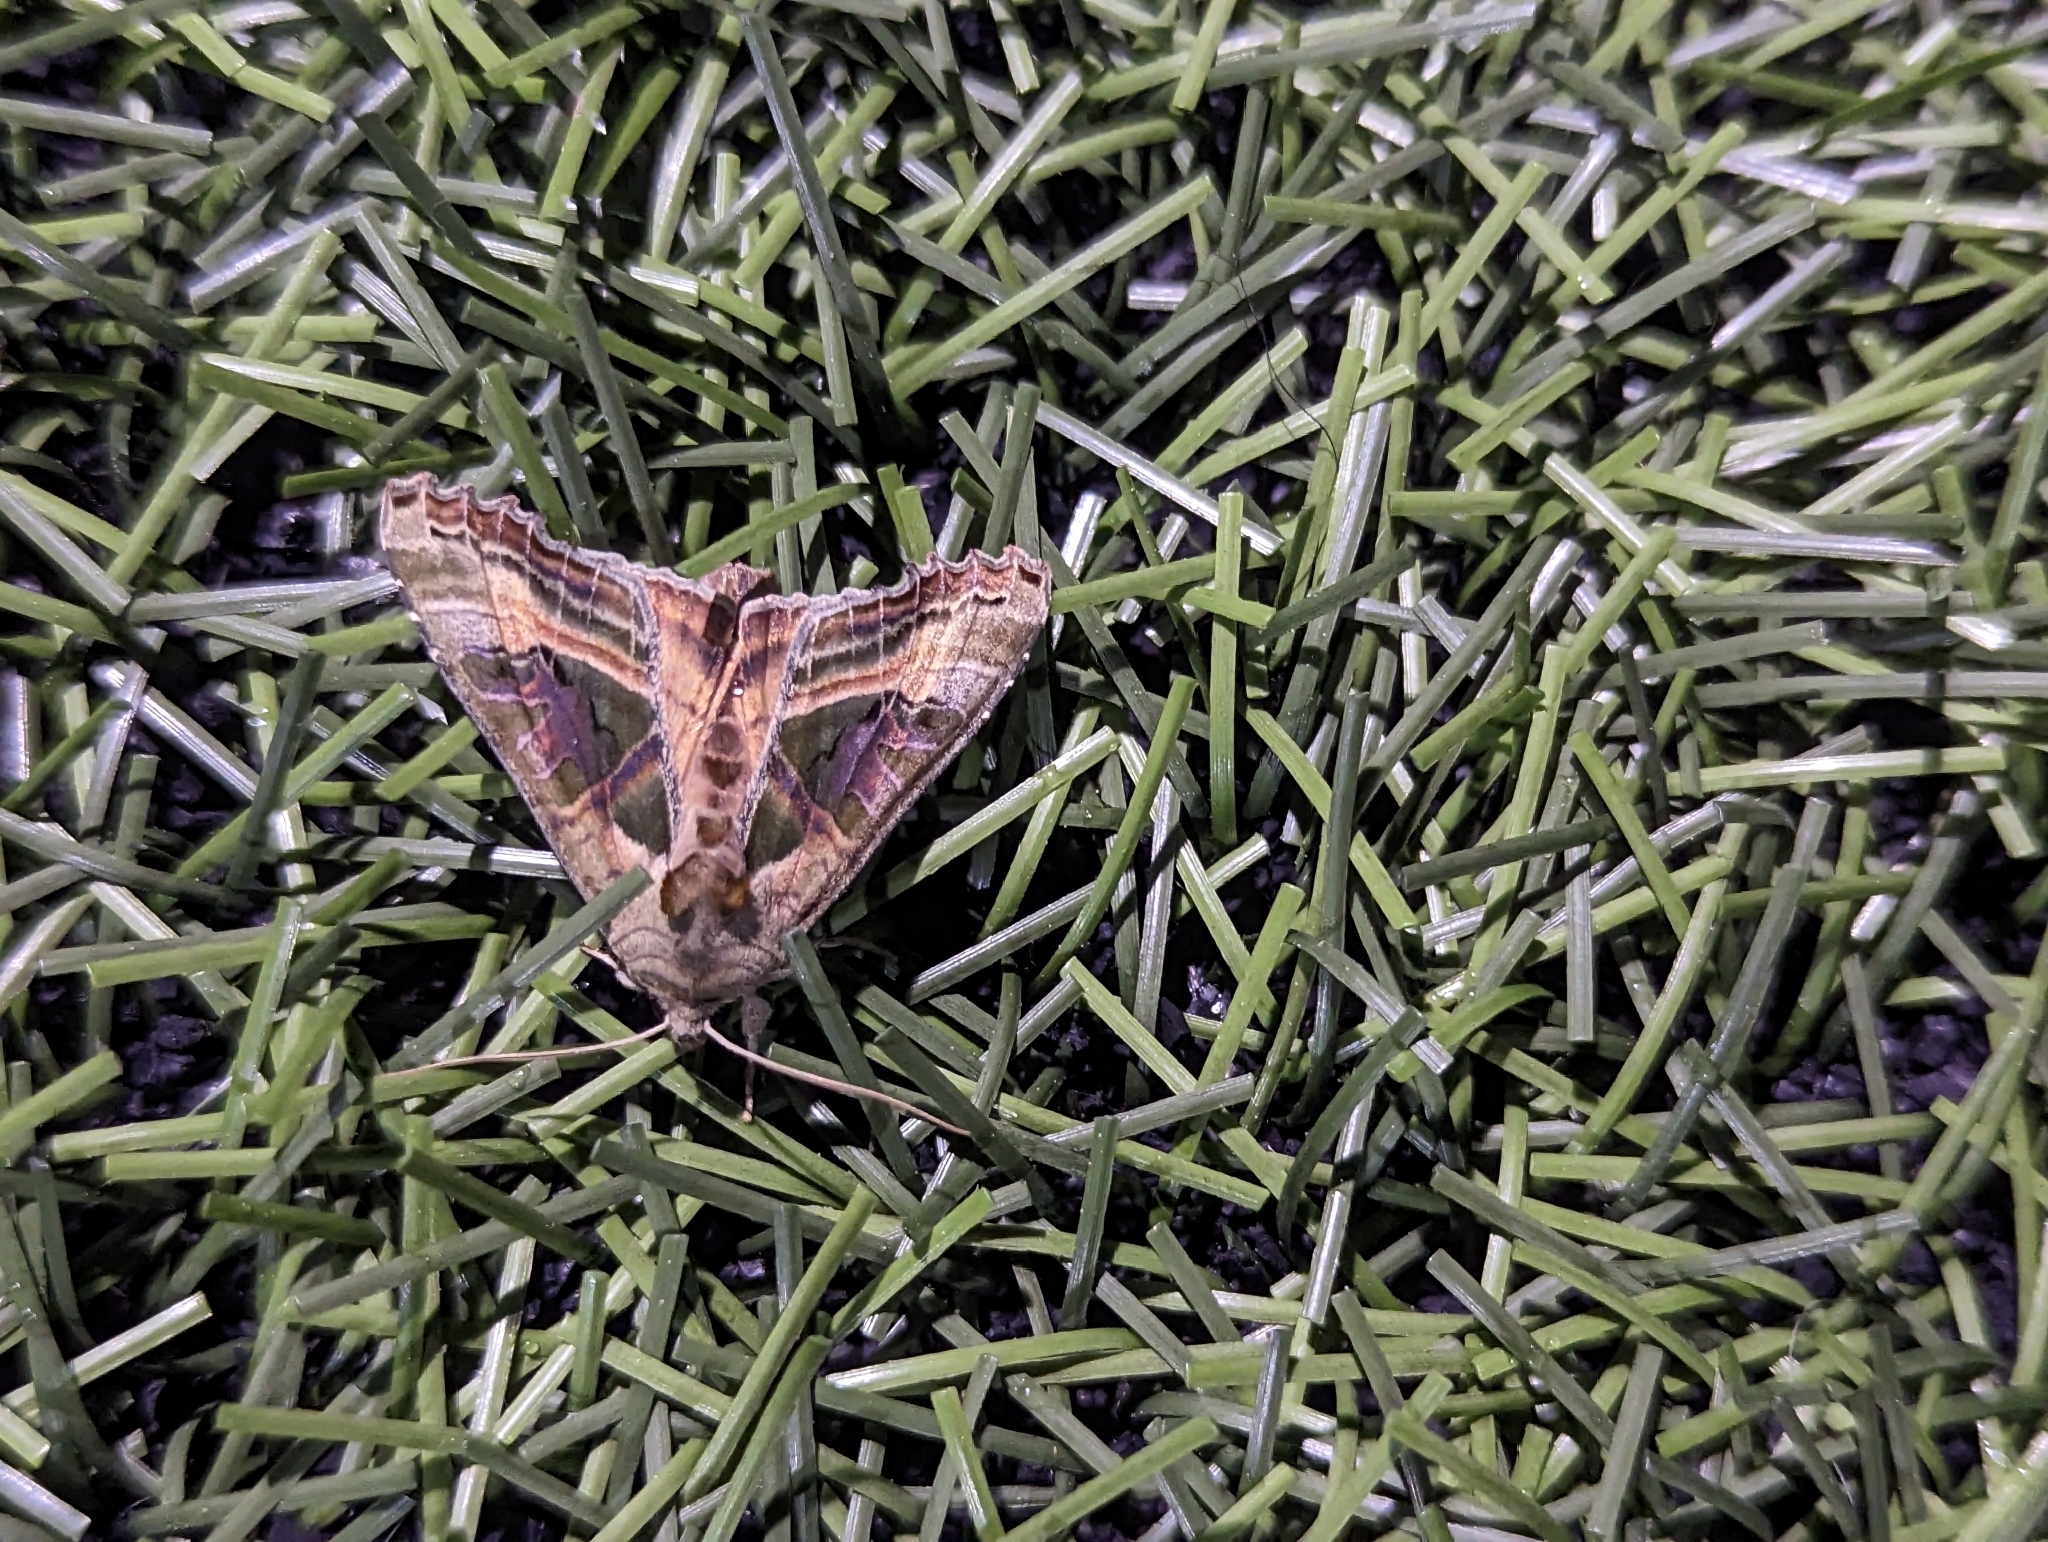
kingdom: Animalia
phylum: Arthropoda
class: Insecta
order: Lepidoptera
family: Noctuidae
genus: Phlogophora
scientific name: Phlogophora iris
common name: Olive angle shades
